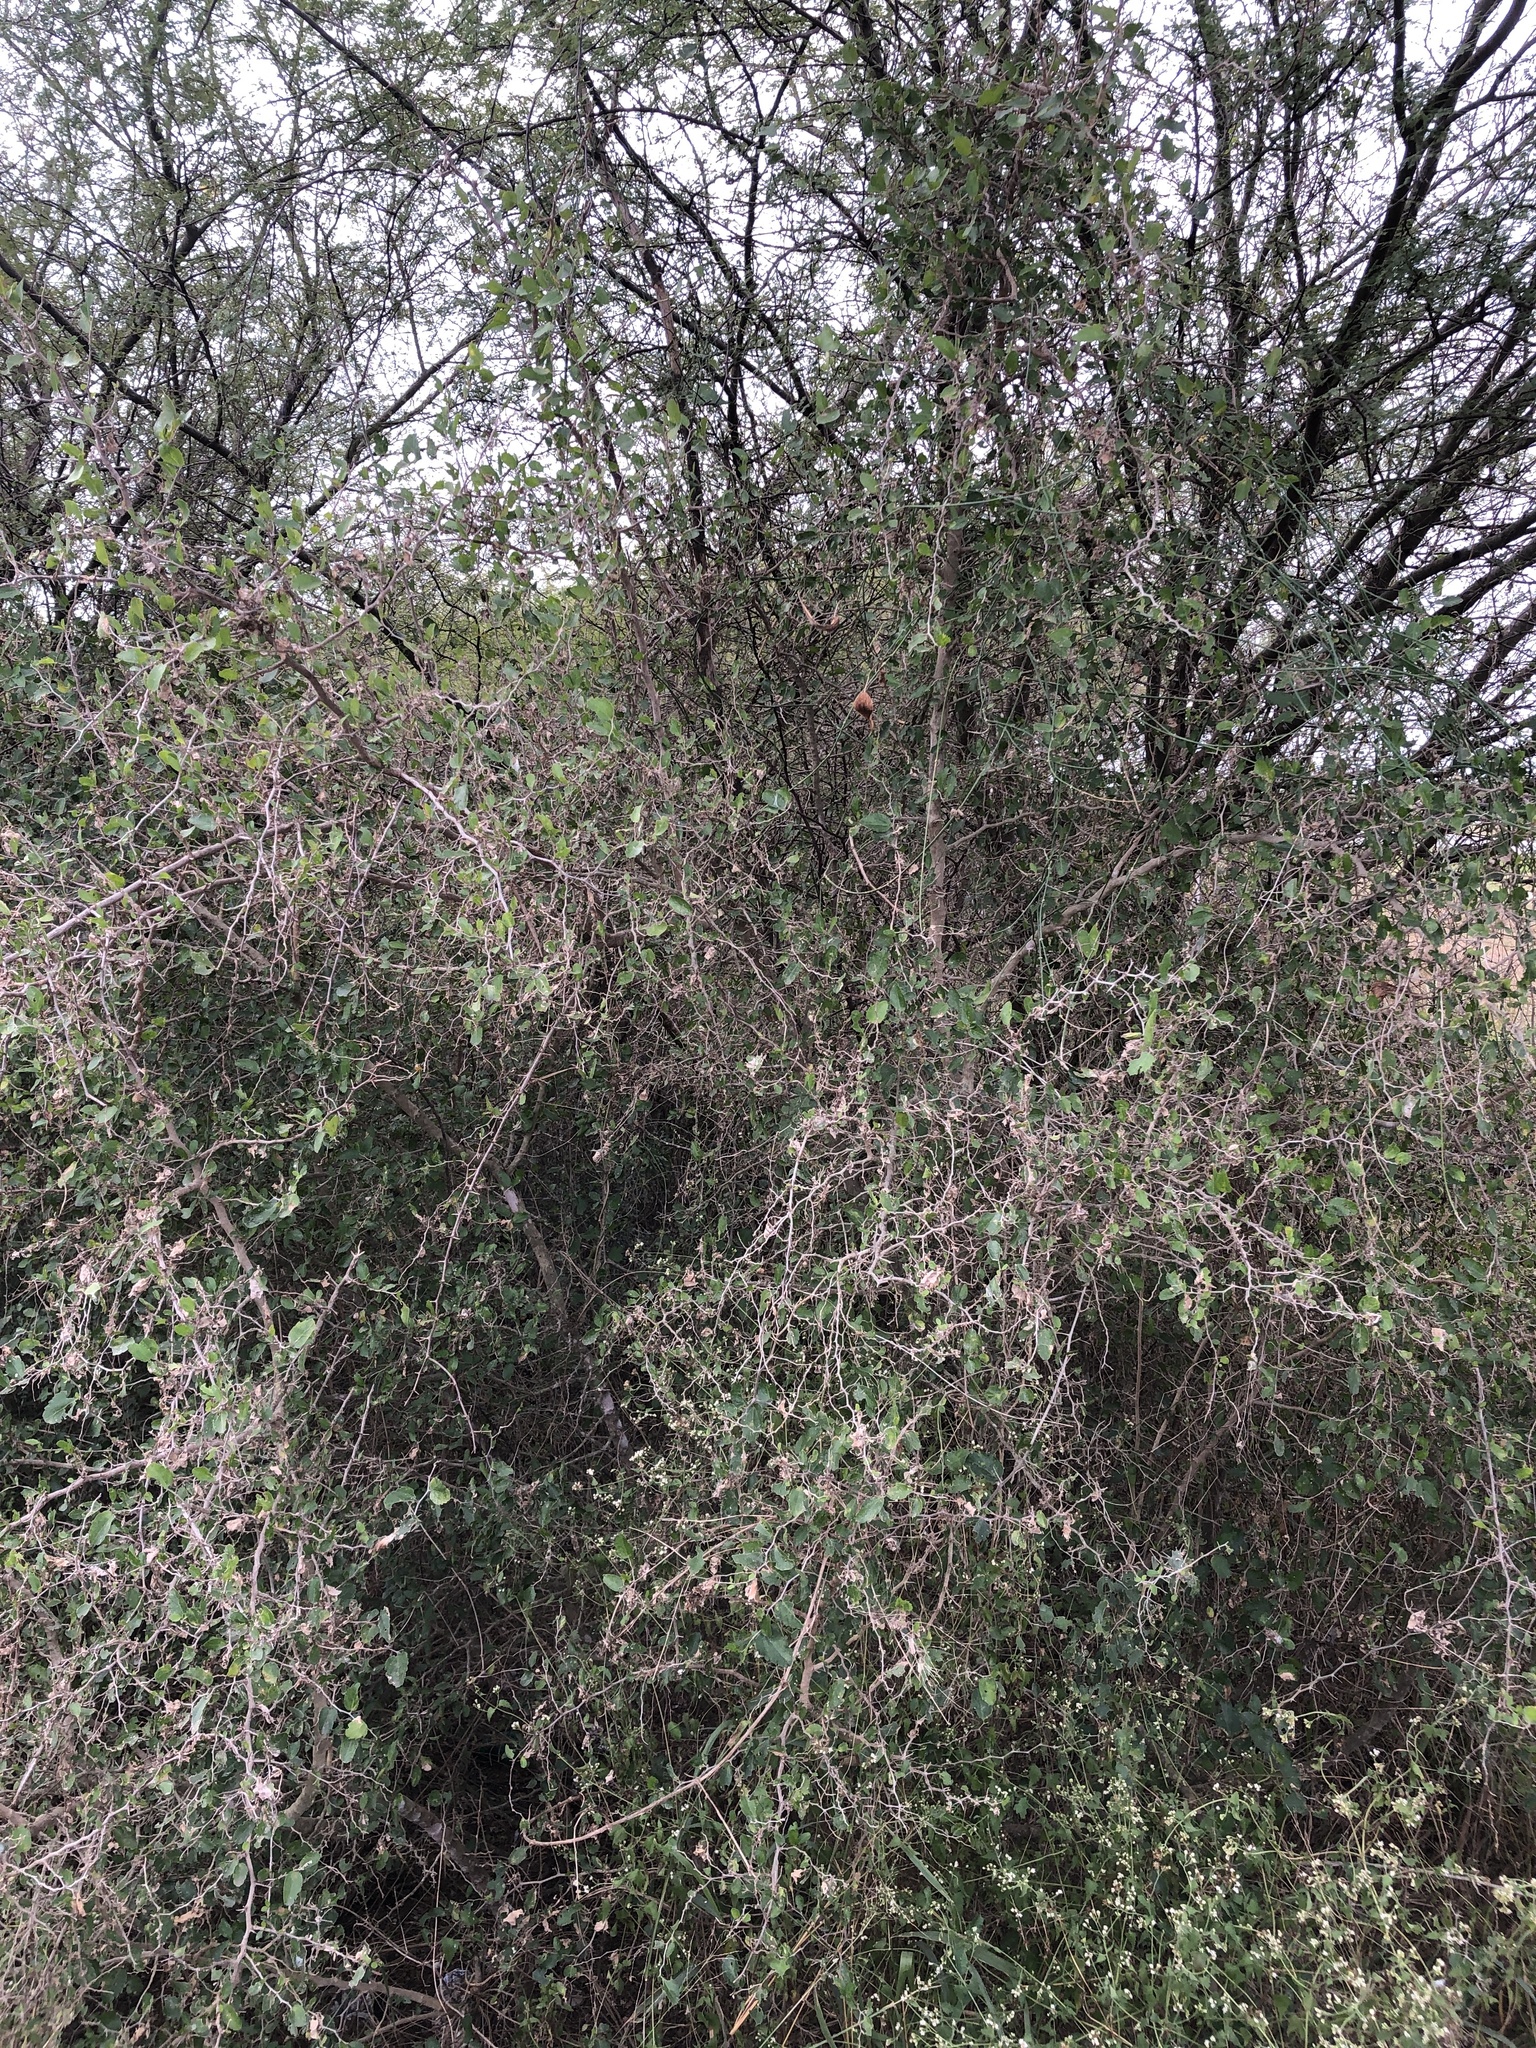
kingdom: Plantae
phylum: Tracheophyta
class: Magnoliopsida
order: Rosales
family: Cannabaceae
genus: Celtis
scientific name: Celtis pallida
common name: Desert hackberry
